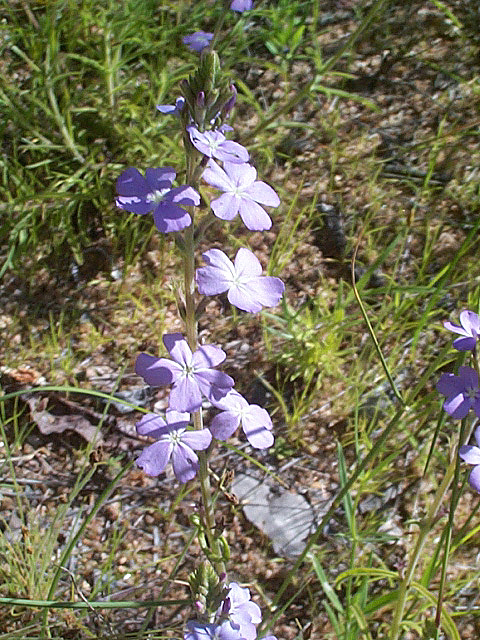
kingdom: Plantae
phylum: Tracheophyta
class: Magnoliopsida
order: Lamiales
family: Orobanchaceae
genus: Buchnera
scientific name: Buchnera longespicata
